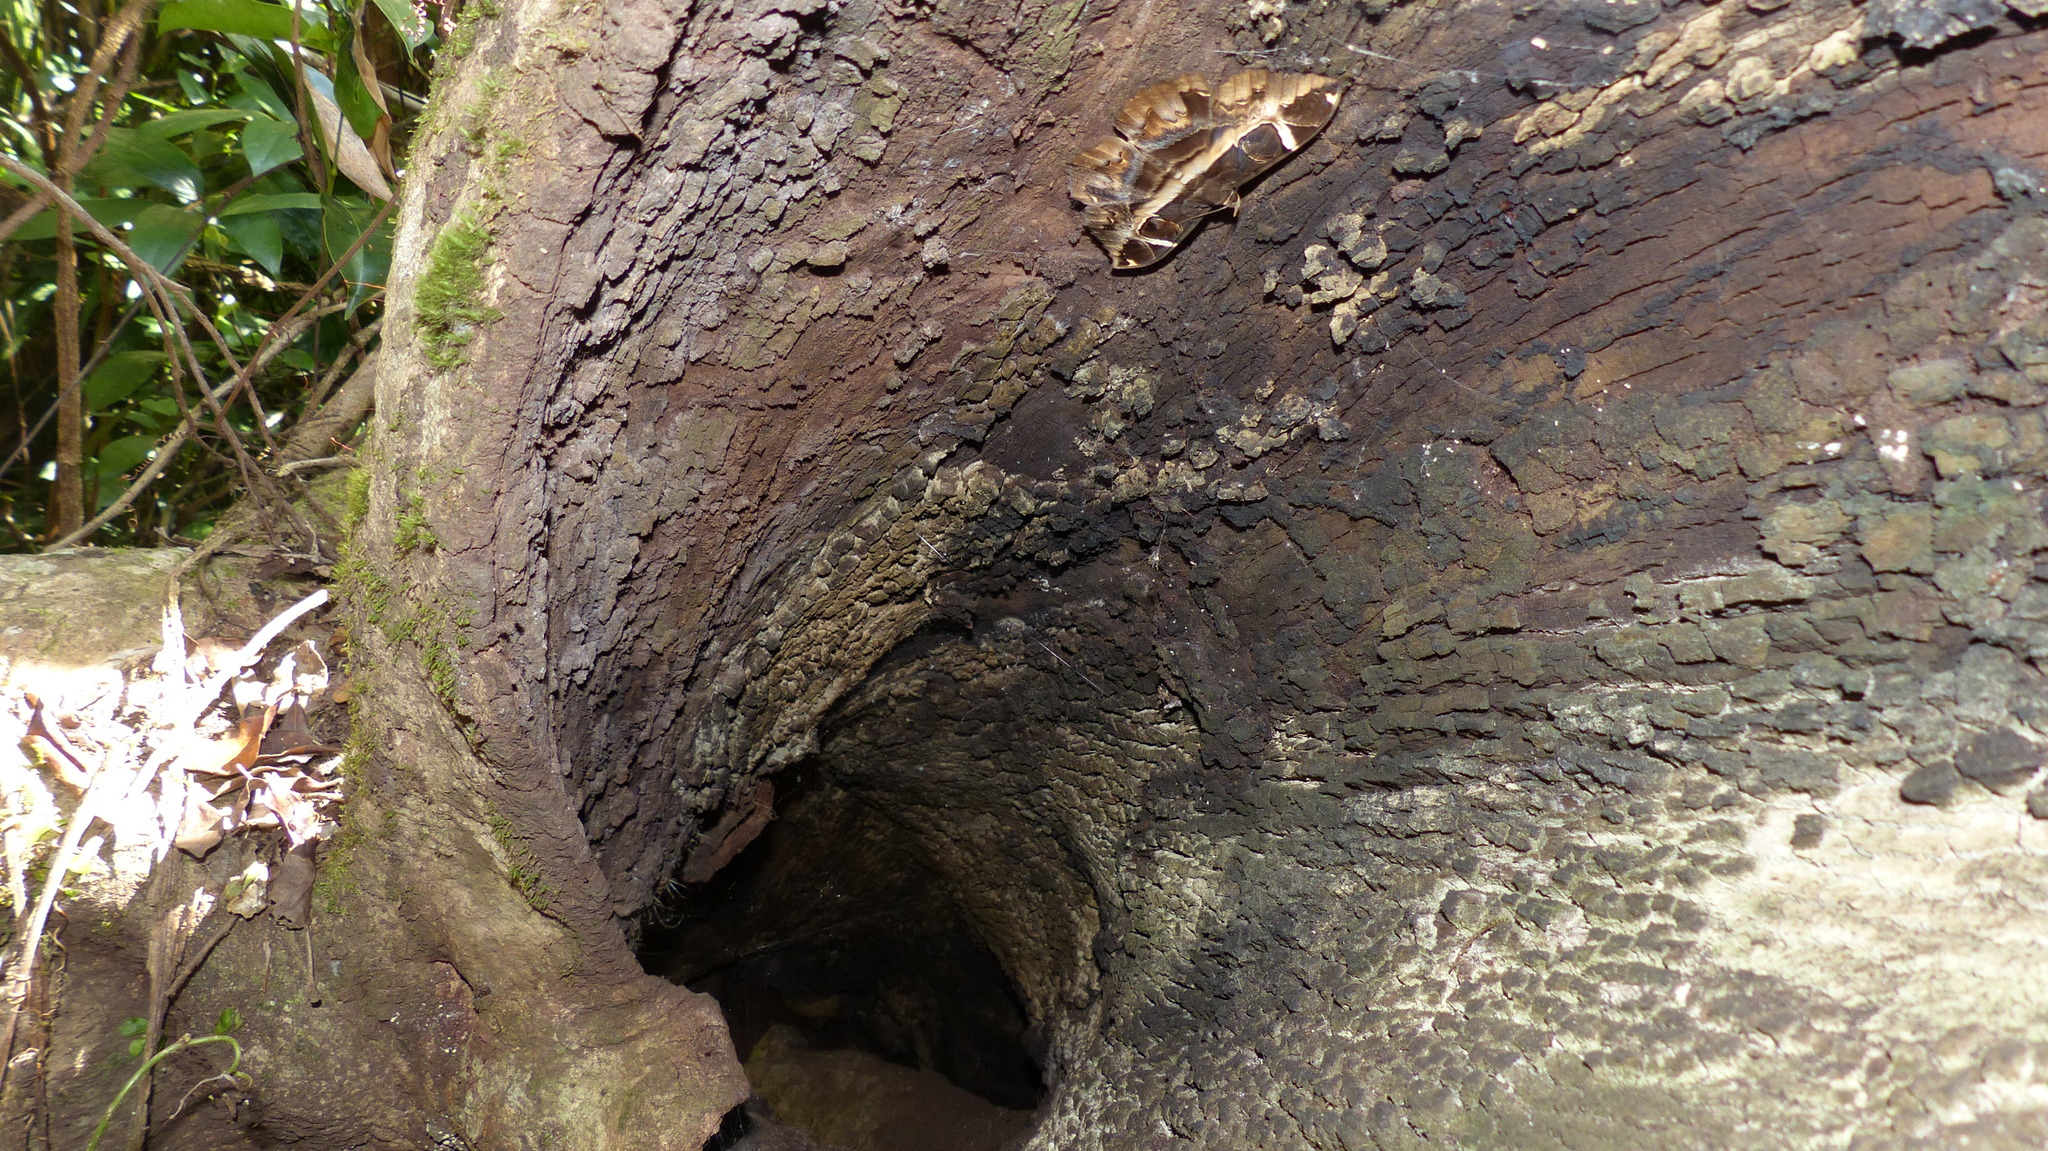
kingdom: Animalia
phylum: Arthropoda
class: Insecta
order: Lepidoptera
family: Erebidae
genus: Erebus
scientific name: Erebus ephesperis
